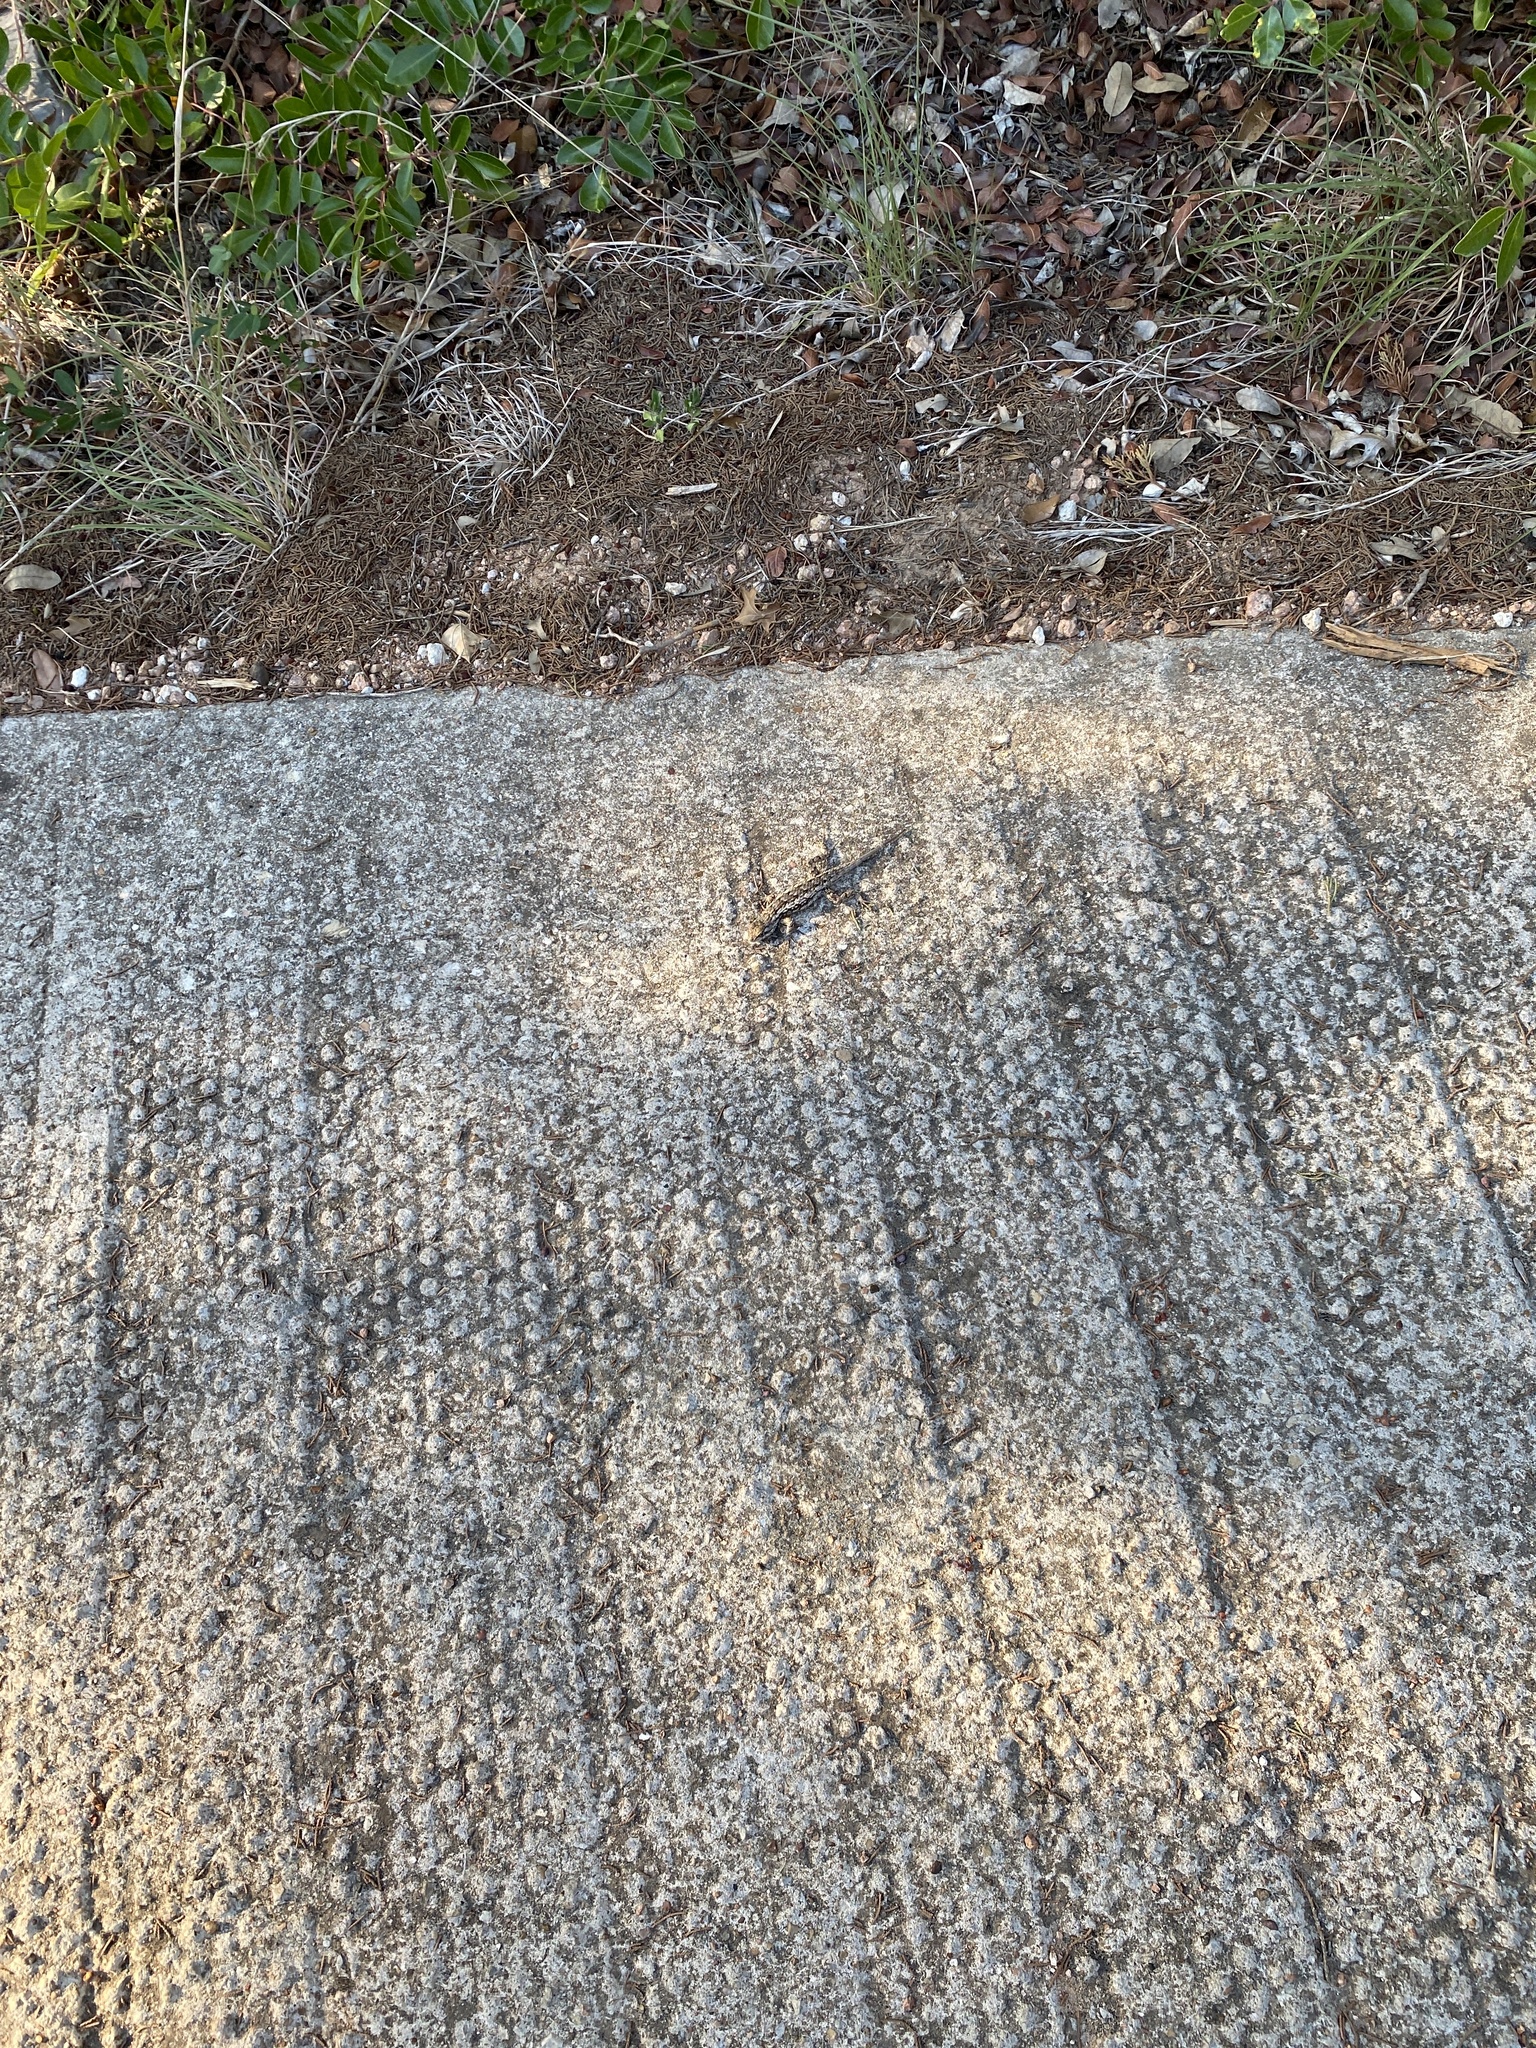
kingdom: Animalia
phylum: Chordata
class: Squamata
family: Phrynosomatidae
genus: Sceloporus
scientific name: Sceloporus olivaceus
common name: Texas spiny lizard
